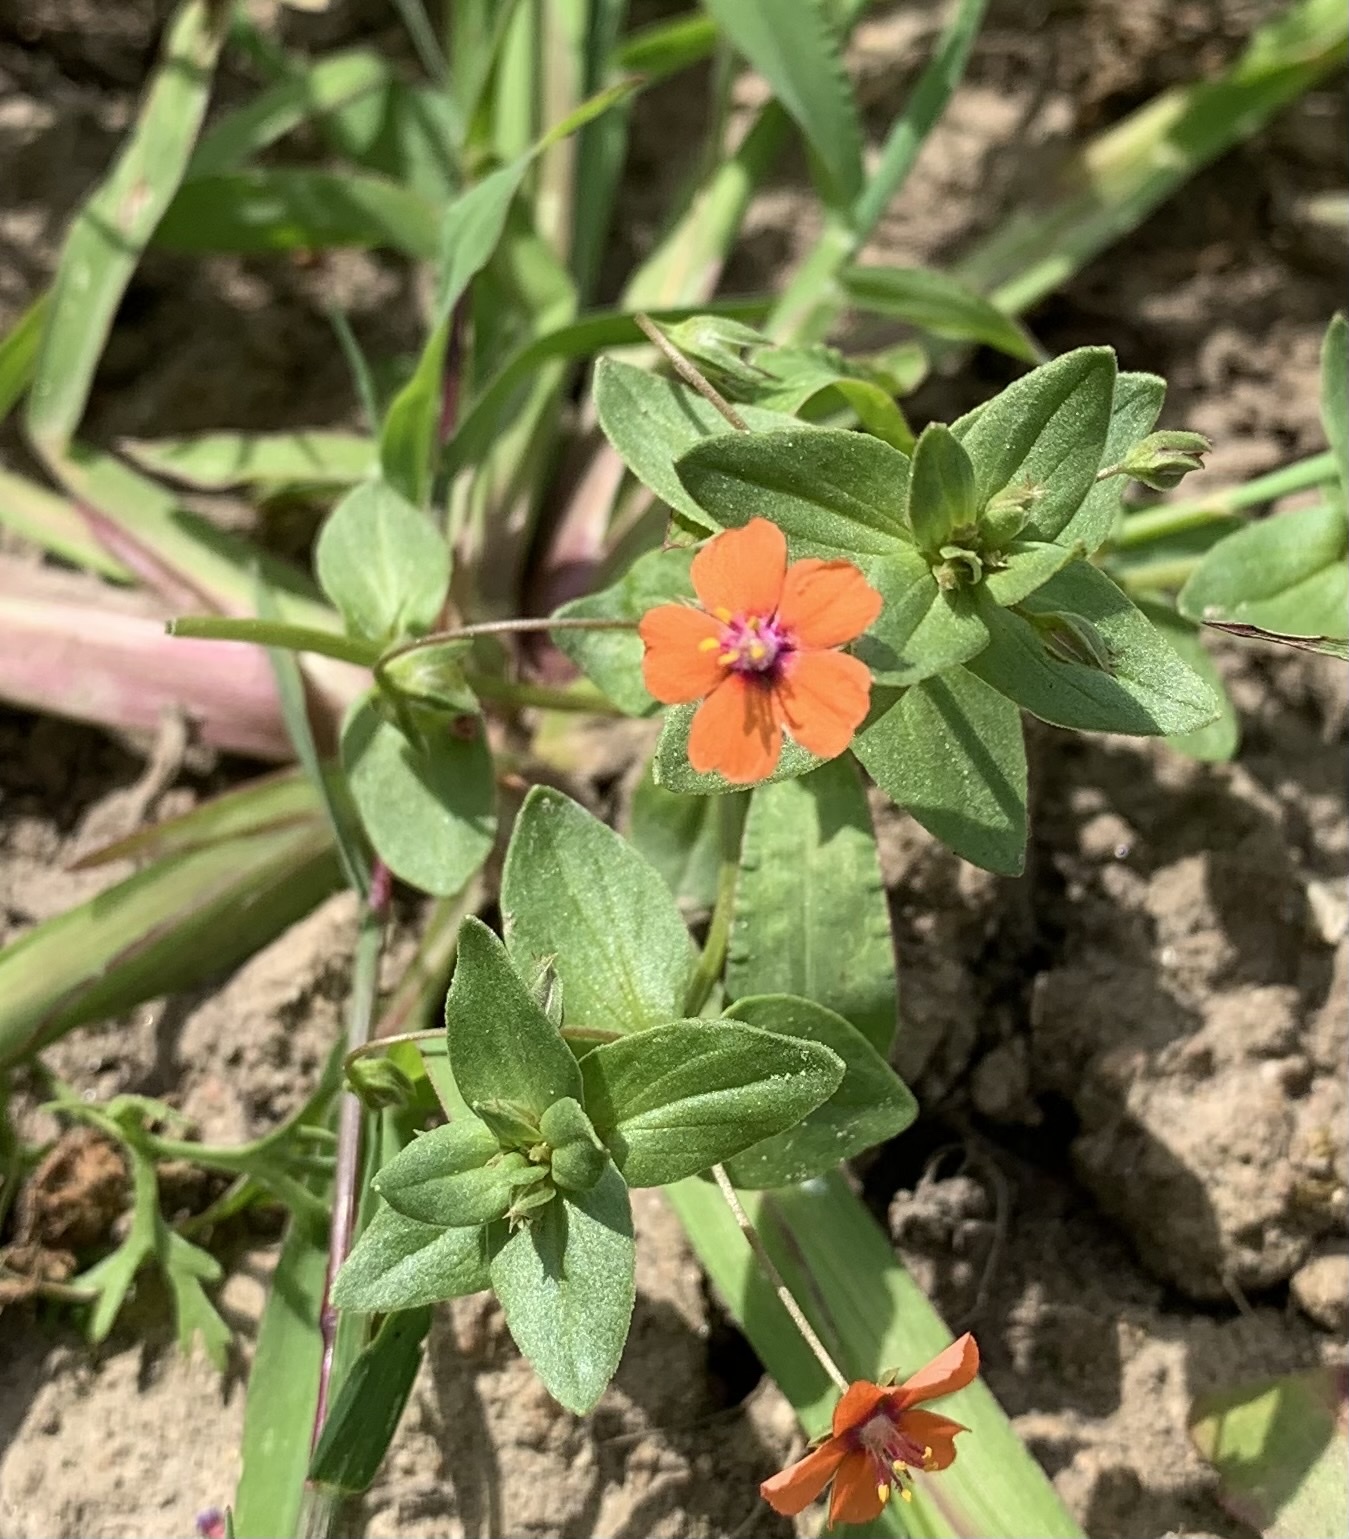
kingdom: Plantae
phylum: Tracheophyta
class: Magnoliopsida
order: Ericales
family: Primulaceae
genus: Lysimachia
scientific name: Lysimachia arvensis
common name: Scarlet pimpernel
